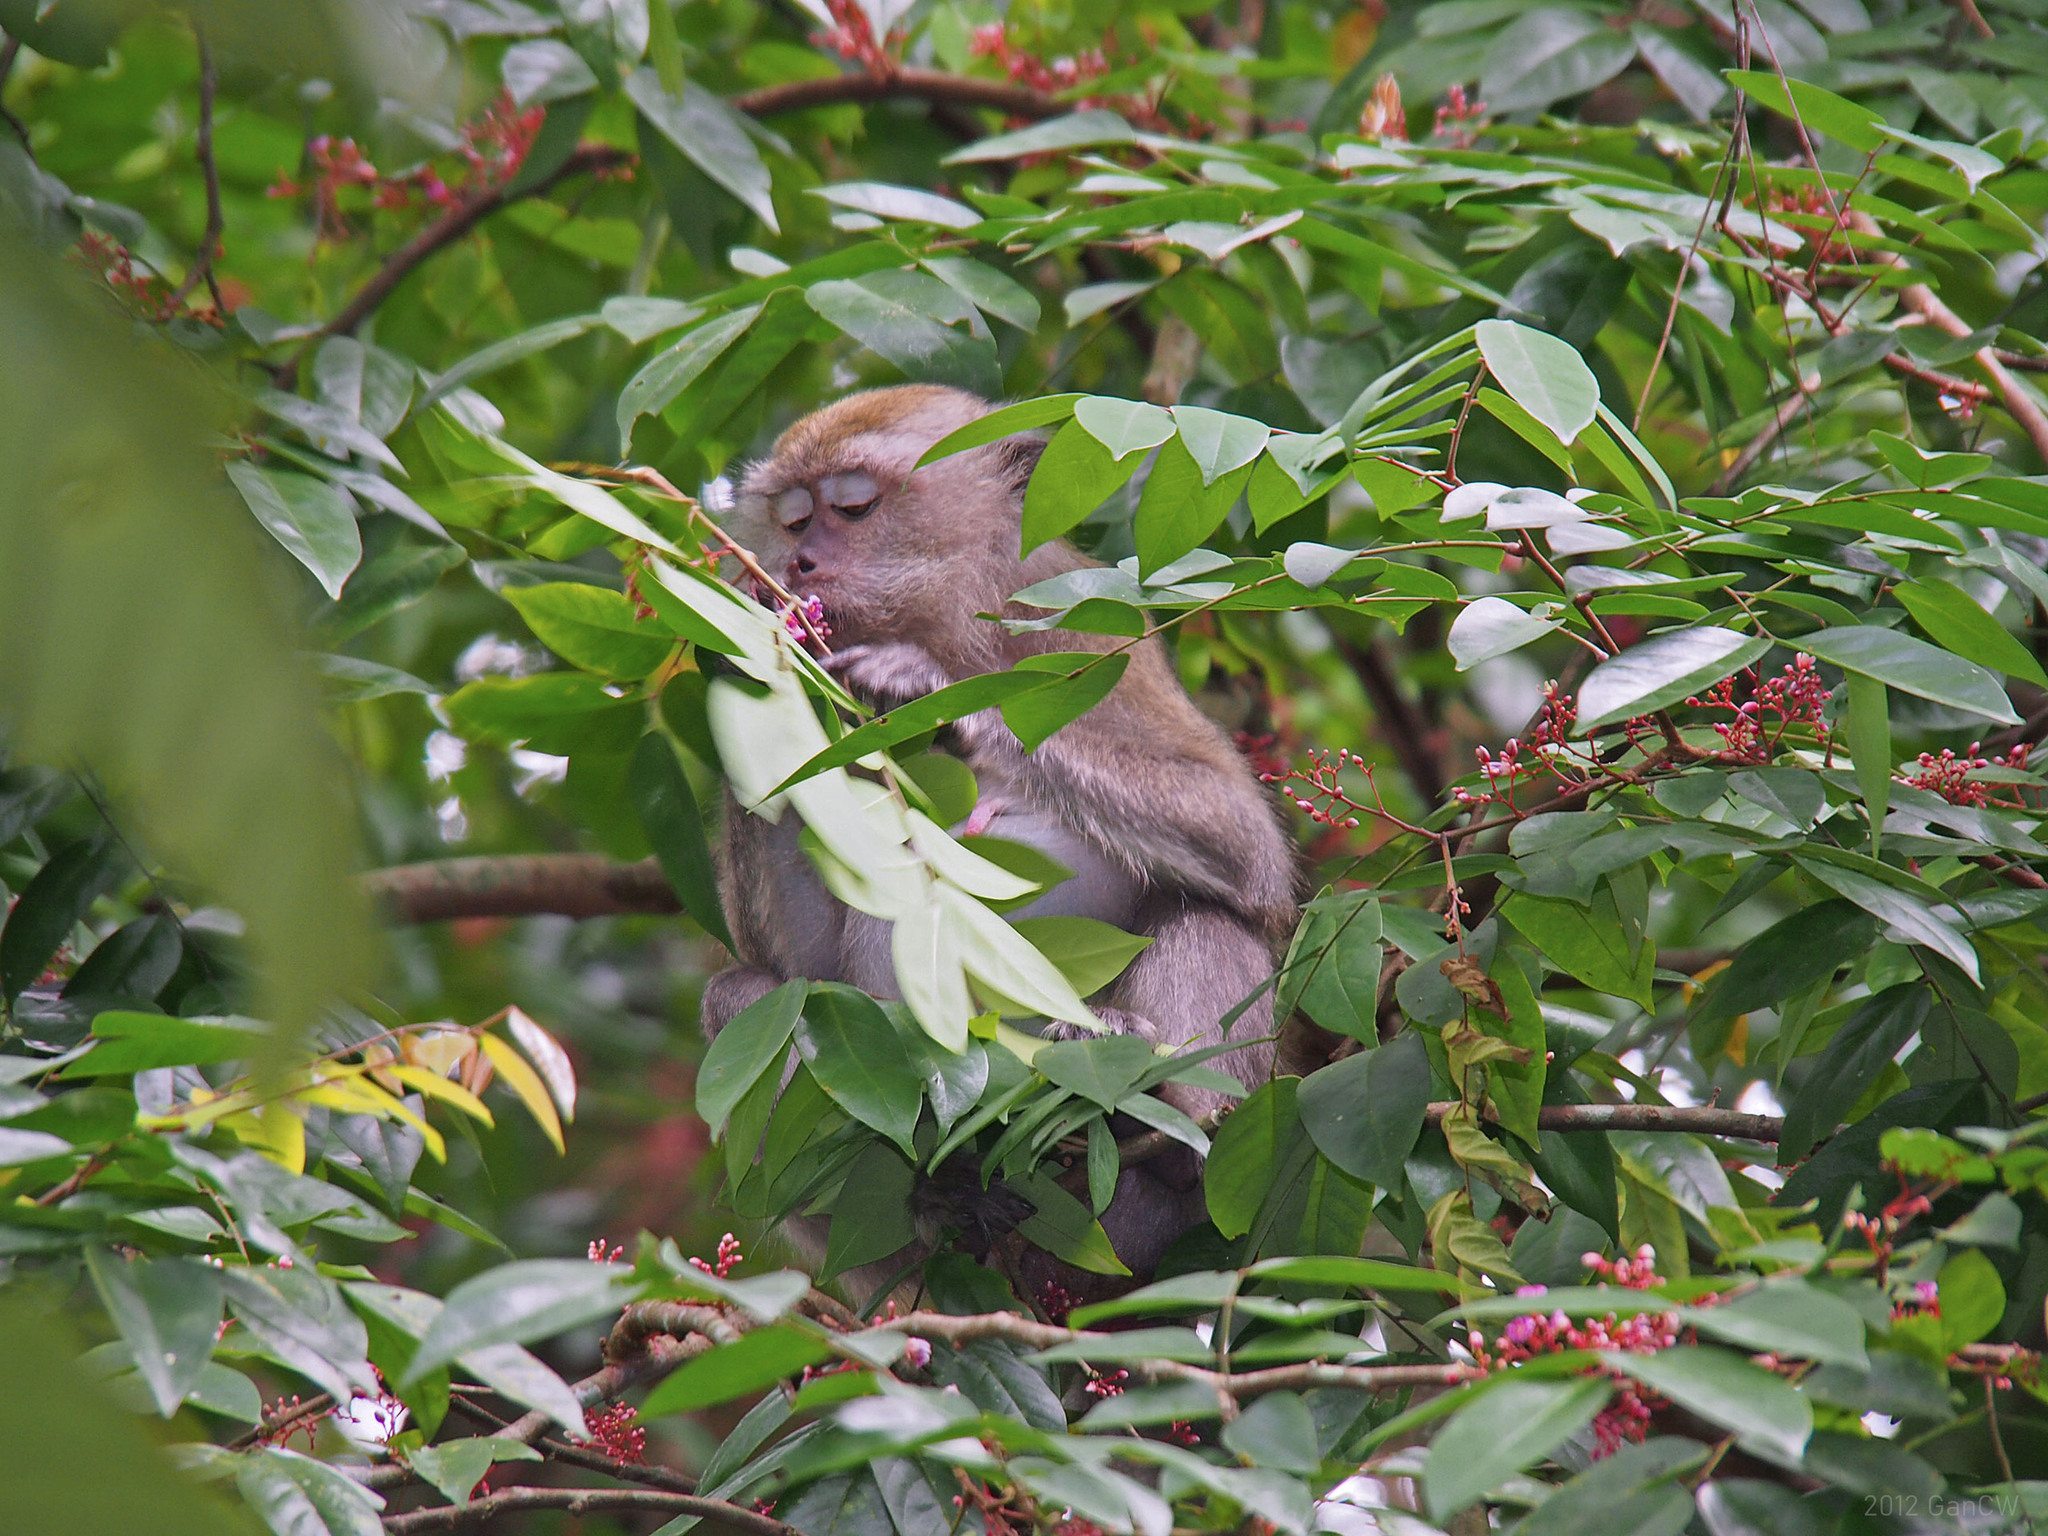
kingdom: Animalia
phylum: Chordata
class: Mammalia
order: Primates
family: Cercopithecidae
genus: Macaca
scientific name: Macaca fascicularis
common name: Crab-eating macaque
